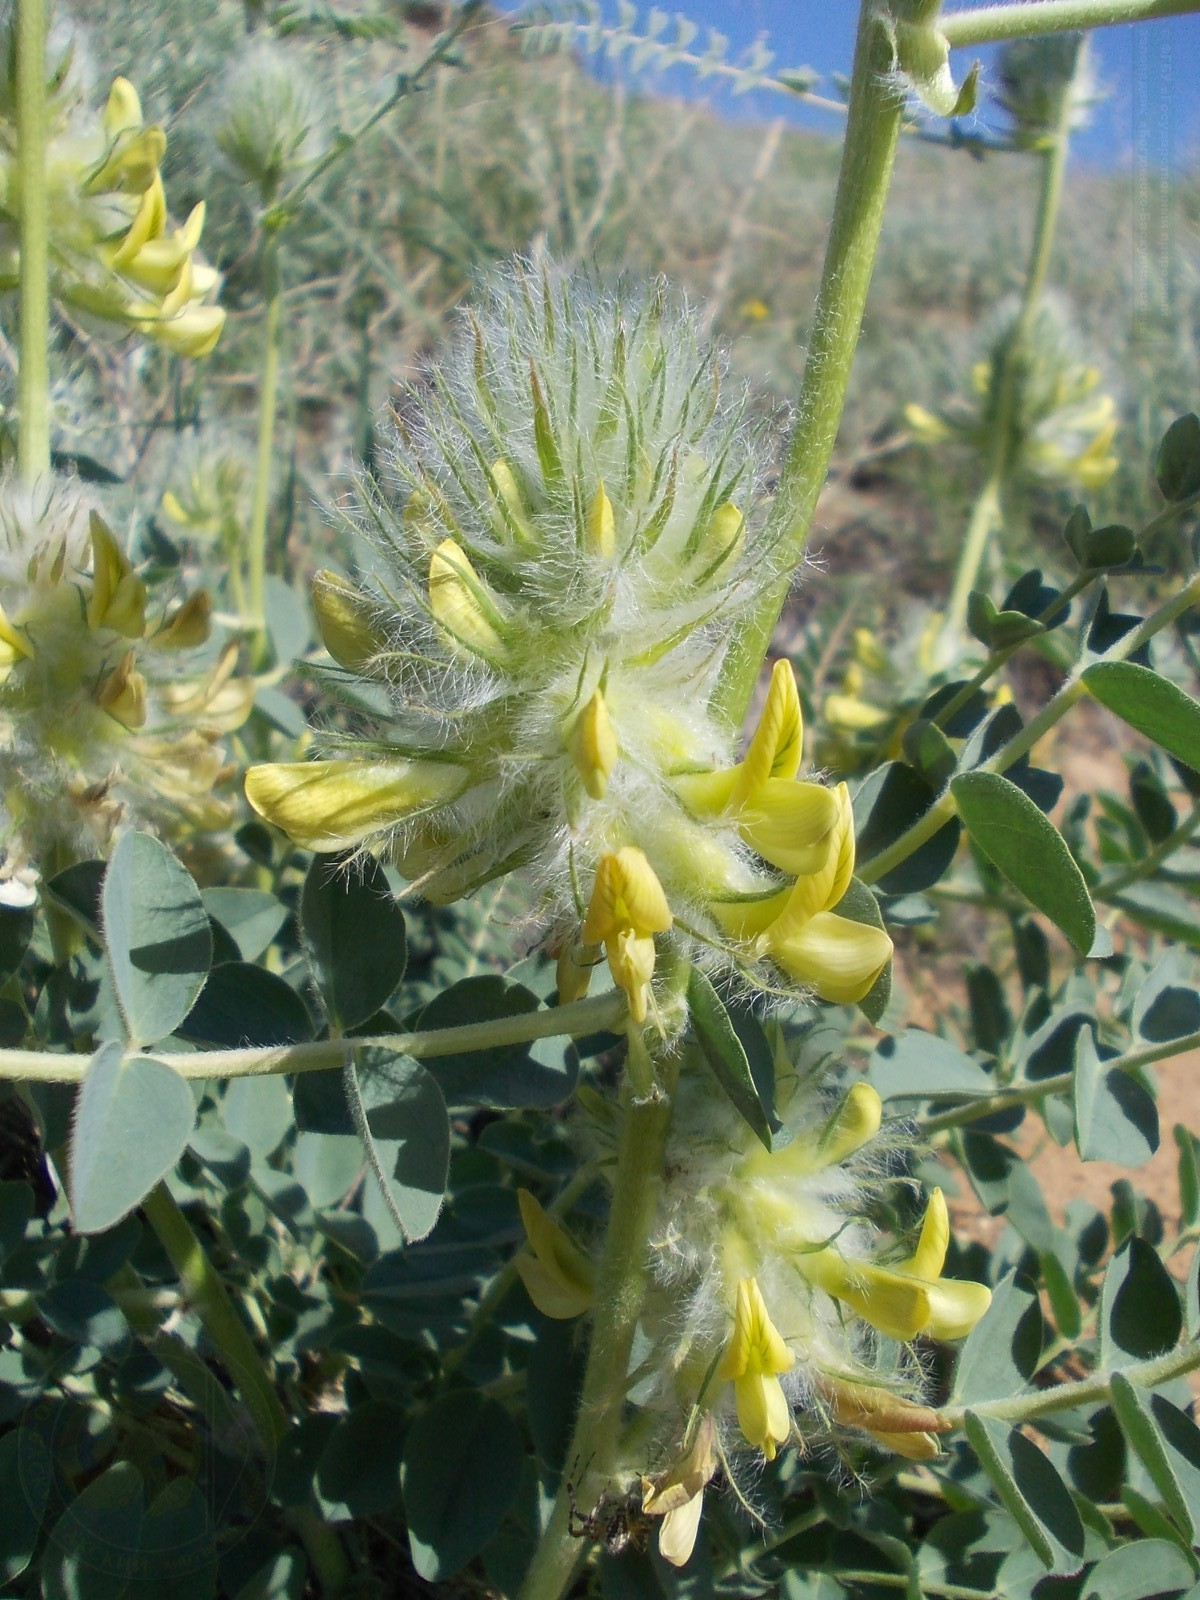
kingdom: Plantae
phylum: Tracheophyta
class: Magnoliopsida
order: Fabales
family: Fabaceae
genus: Astragalus
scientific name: Astragalus vulpinus
